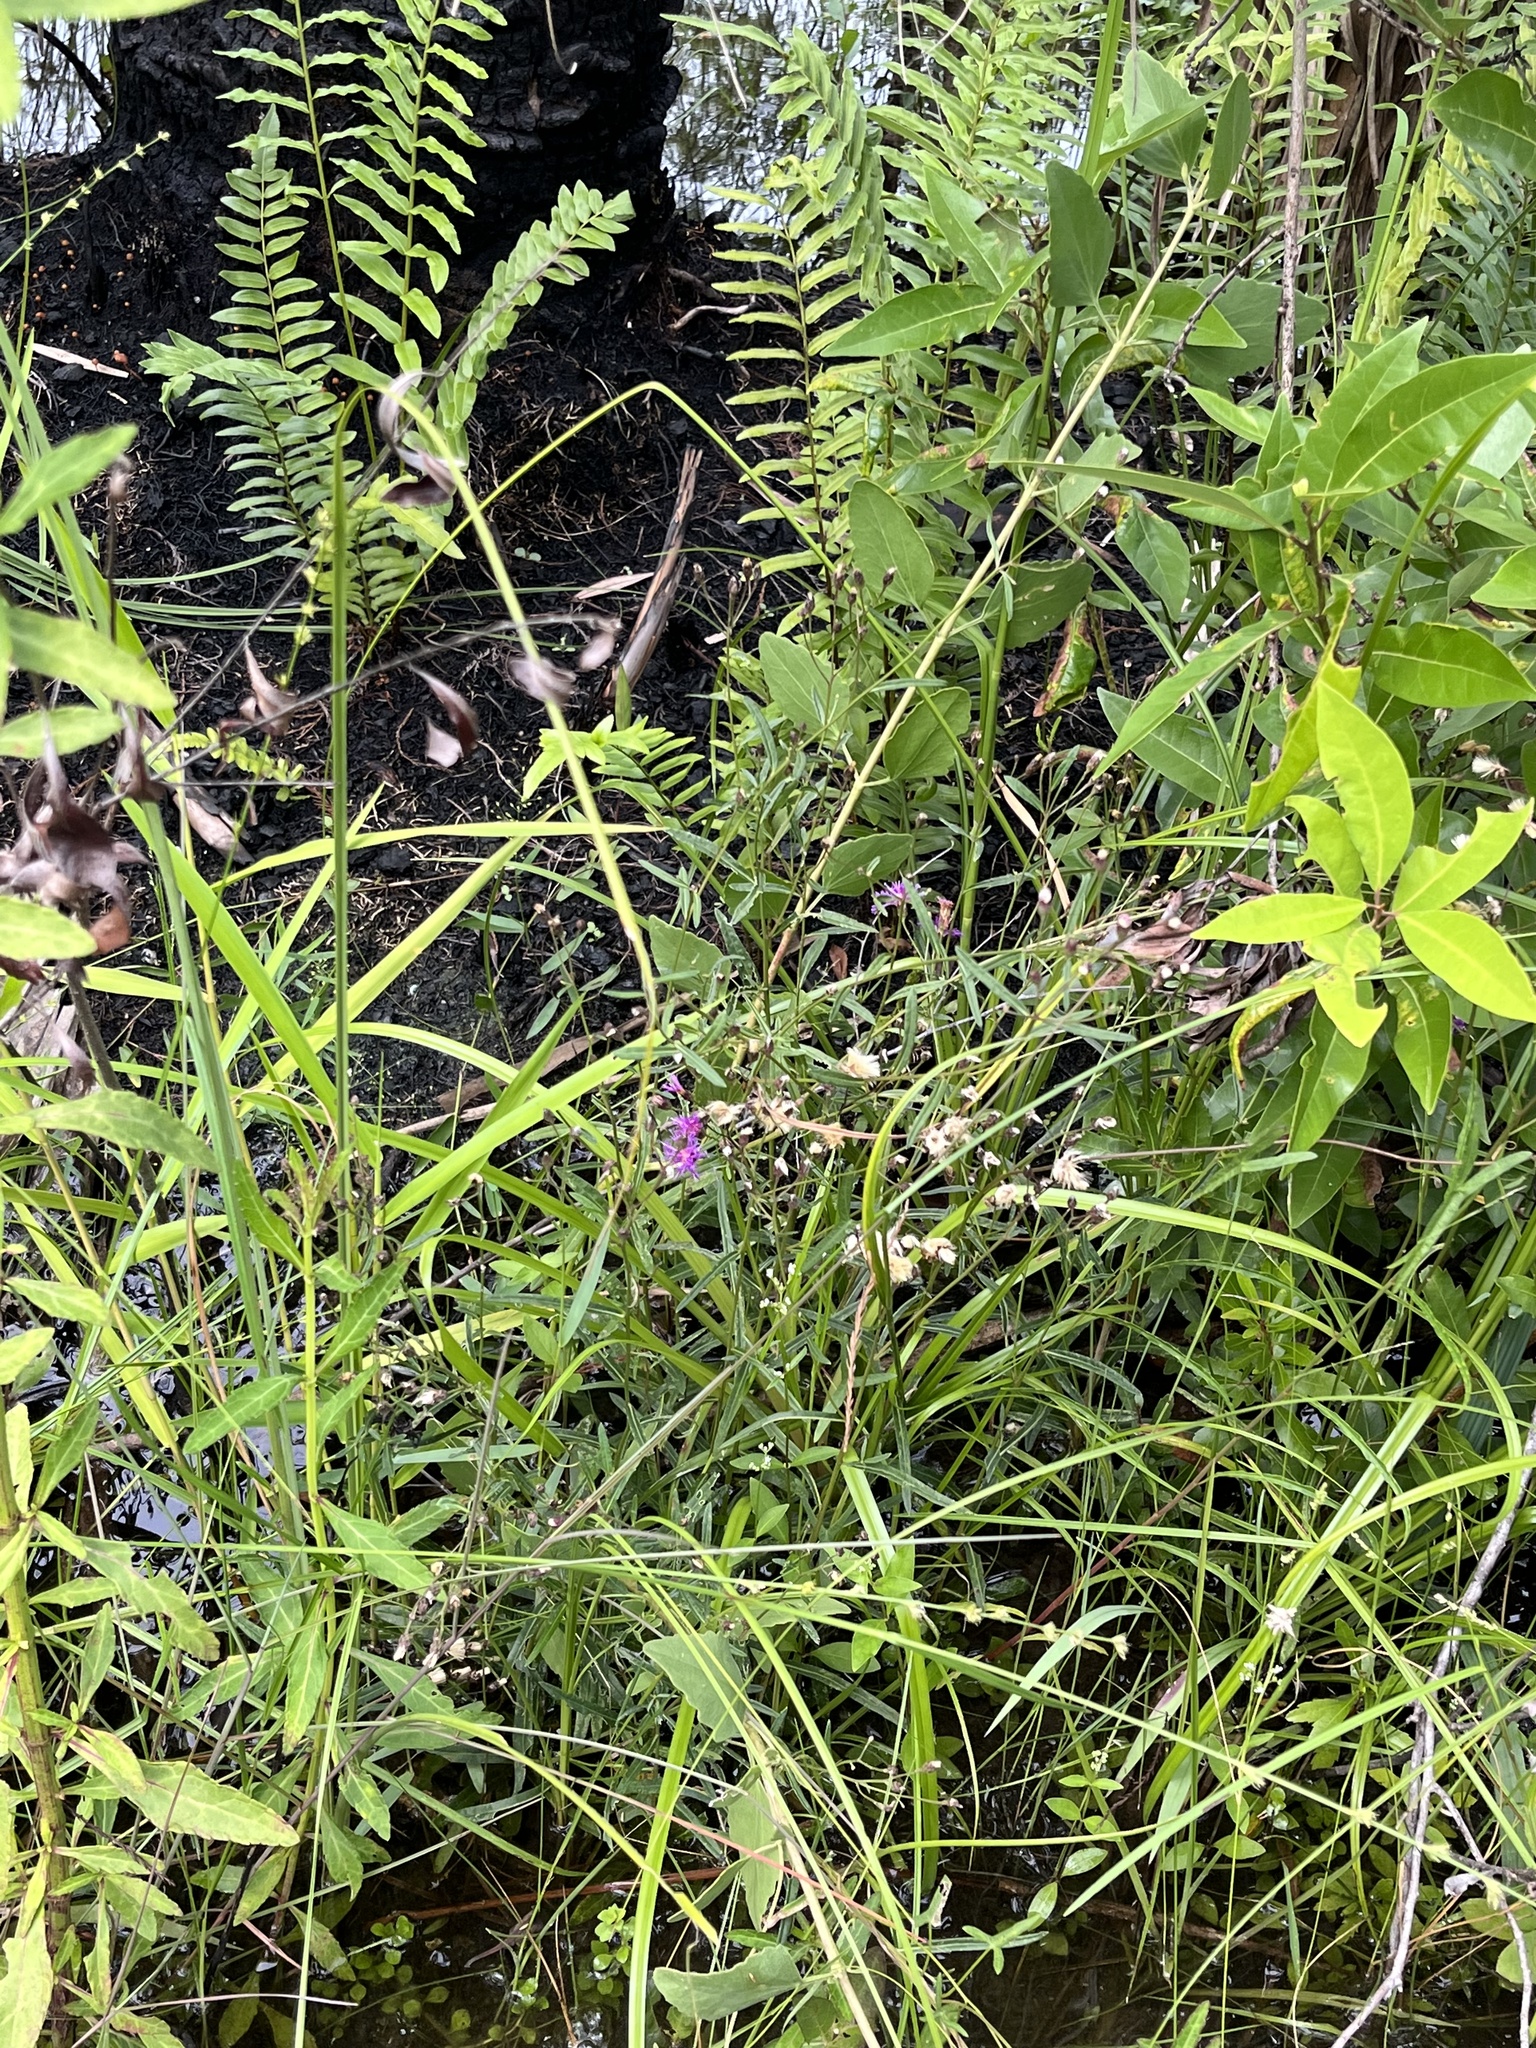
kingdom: Plantae
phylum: Tracheophyta
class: Magnoliopsida
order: Asterales
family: Asteraceae
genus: Vernonia
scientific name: Vernonia blodgettii
